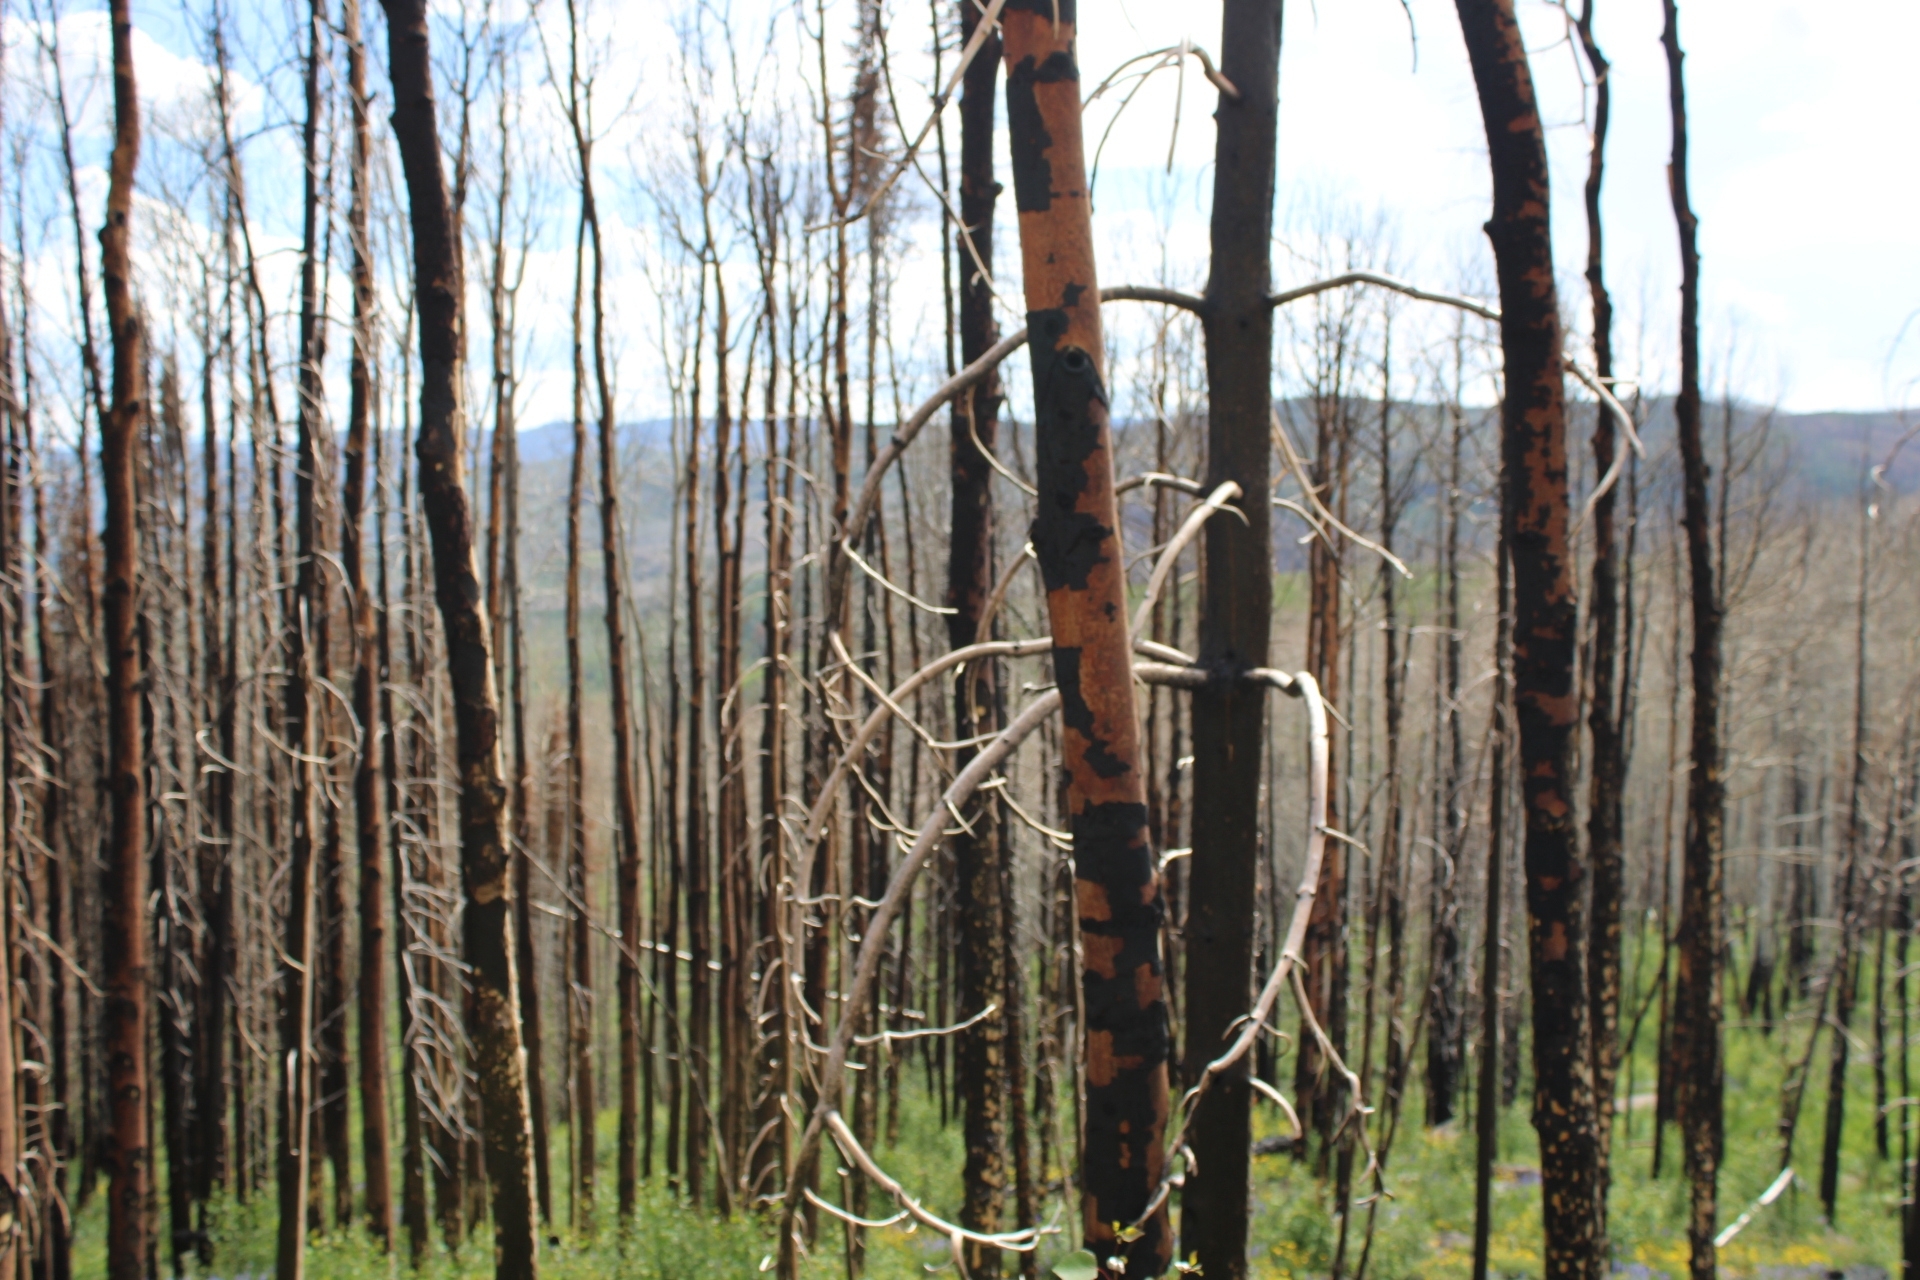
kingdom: Plantae
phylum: Tracheophyta
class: Magnoliopsida
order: Malpighiales
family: Salicaceae
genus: Populus
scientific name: Populus tremuloides
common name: Quaking aspen
